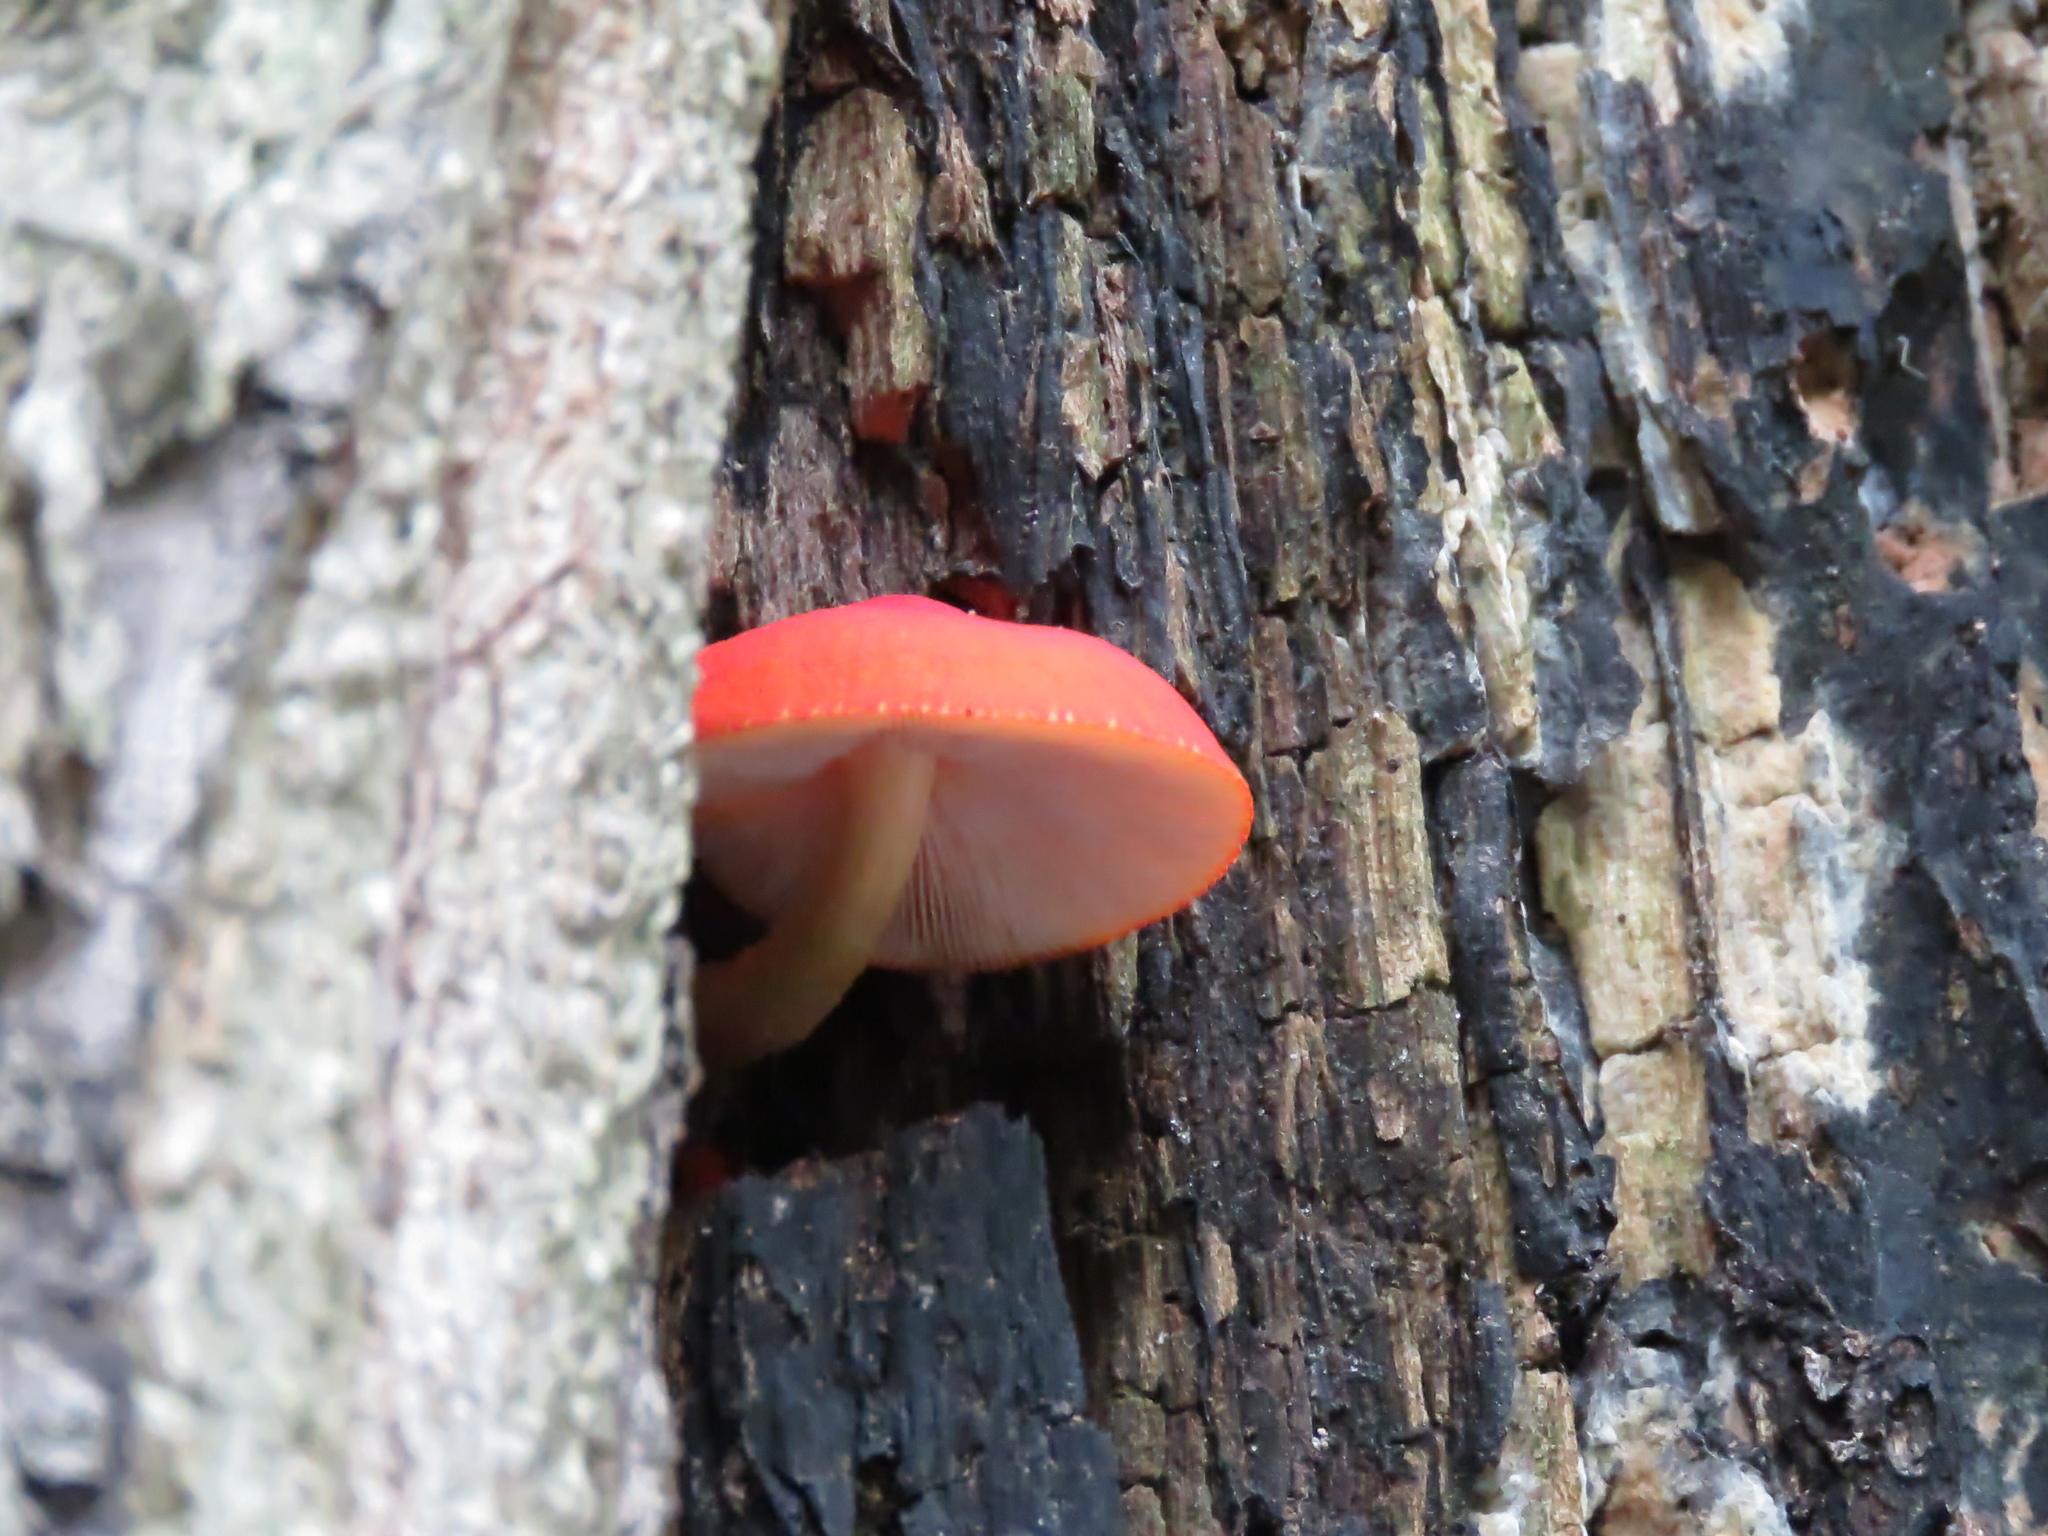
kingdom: Fungi
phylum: Basidiomycota
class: Agaricomycetes
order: Agaricales
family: Pluteaceae
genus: Pluteus
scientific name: Pluteus aurantiorugosus
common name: Flame shield
